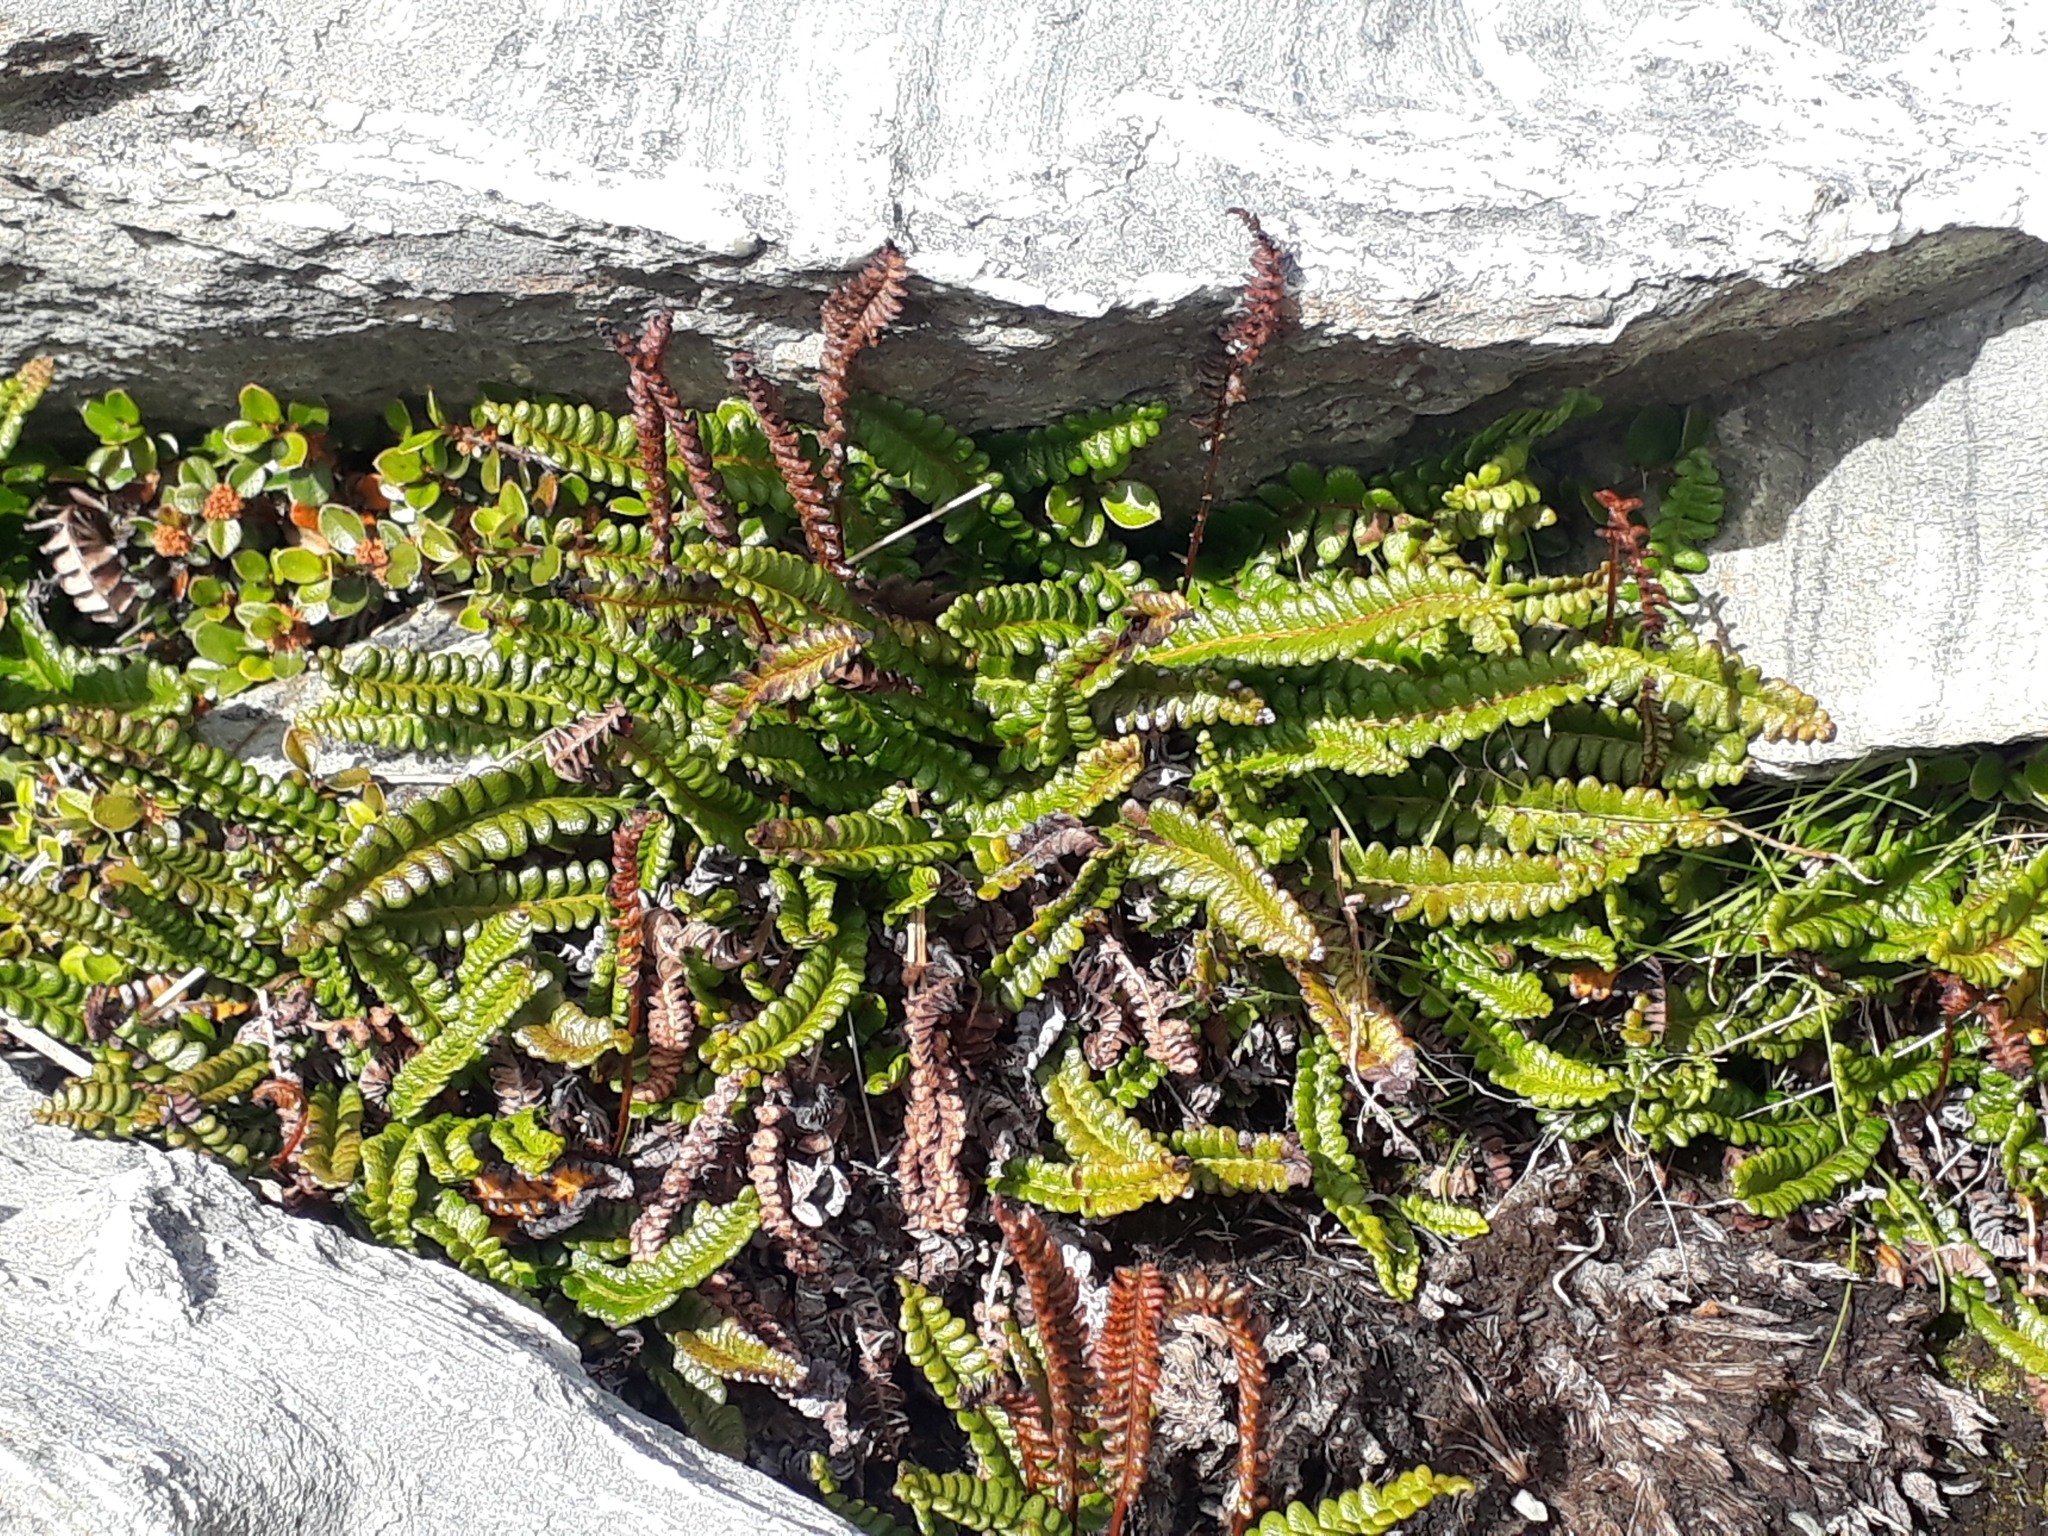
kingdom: Plantae
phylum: Tracheophyta
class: Polypodiopsida
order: Polypodiales
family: Blechnaceae
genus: Austroblechnum
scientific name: Austroblechnum penna-marina
